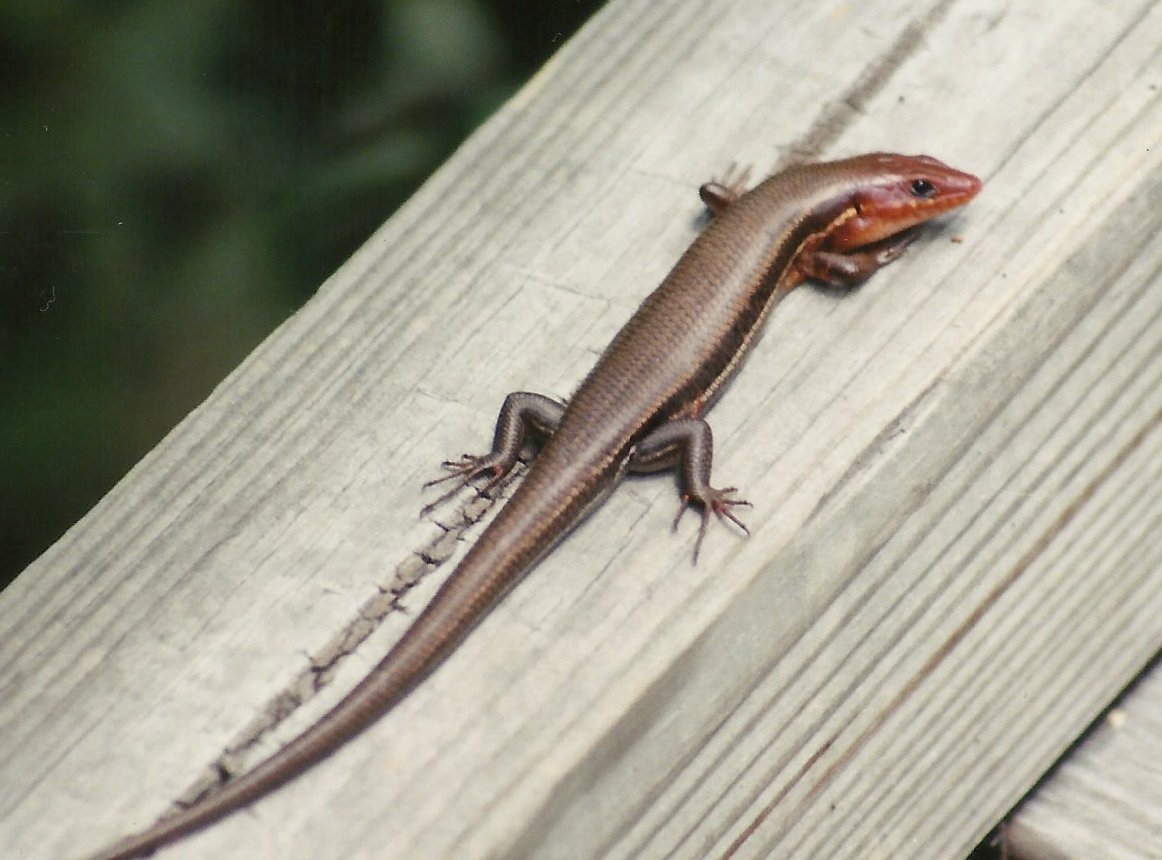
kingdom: Animalia
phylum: Chordata
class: Squamata
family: Scincidae
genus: Plestiodon
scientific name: Plestiodon inexpectatus
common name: Southeastern five-lined skink
